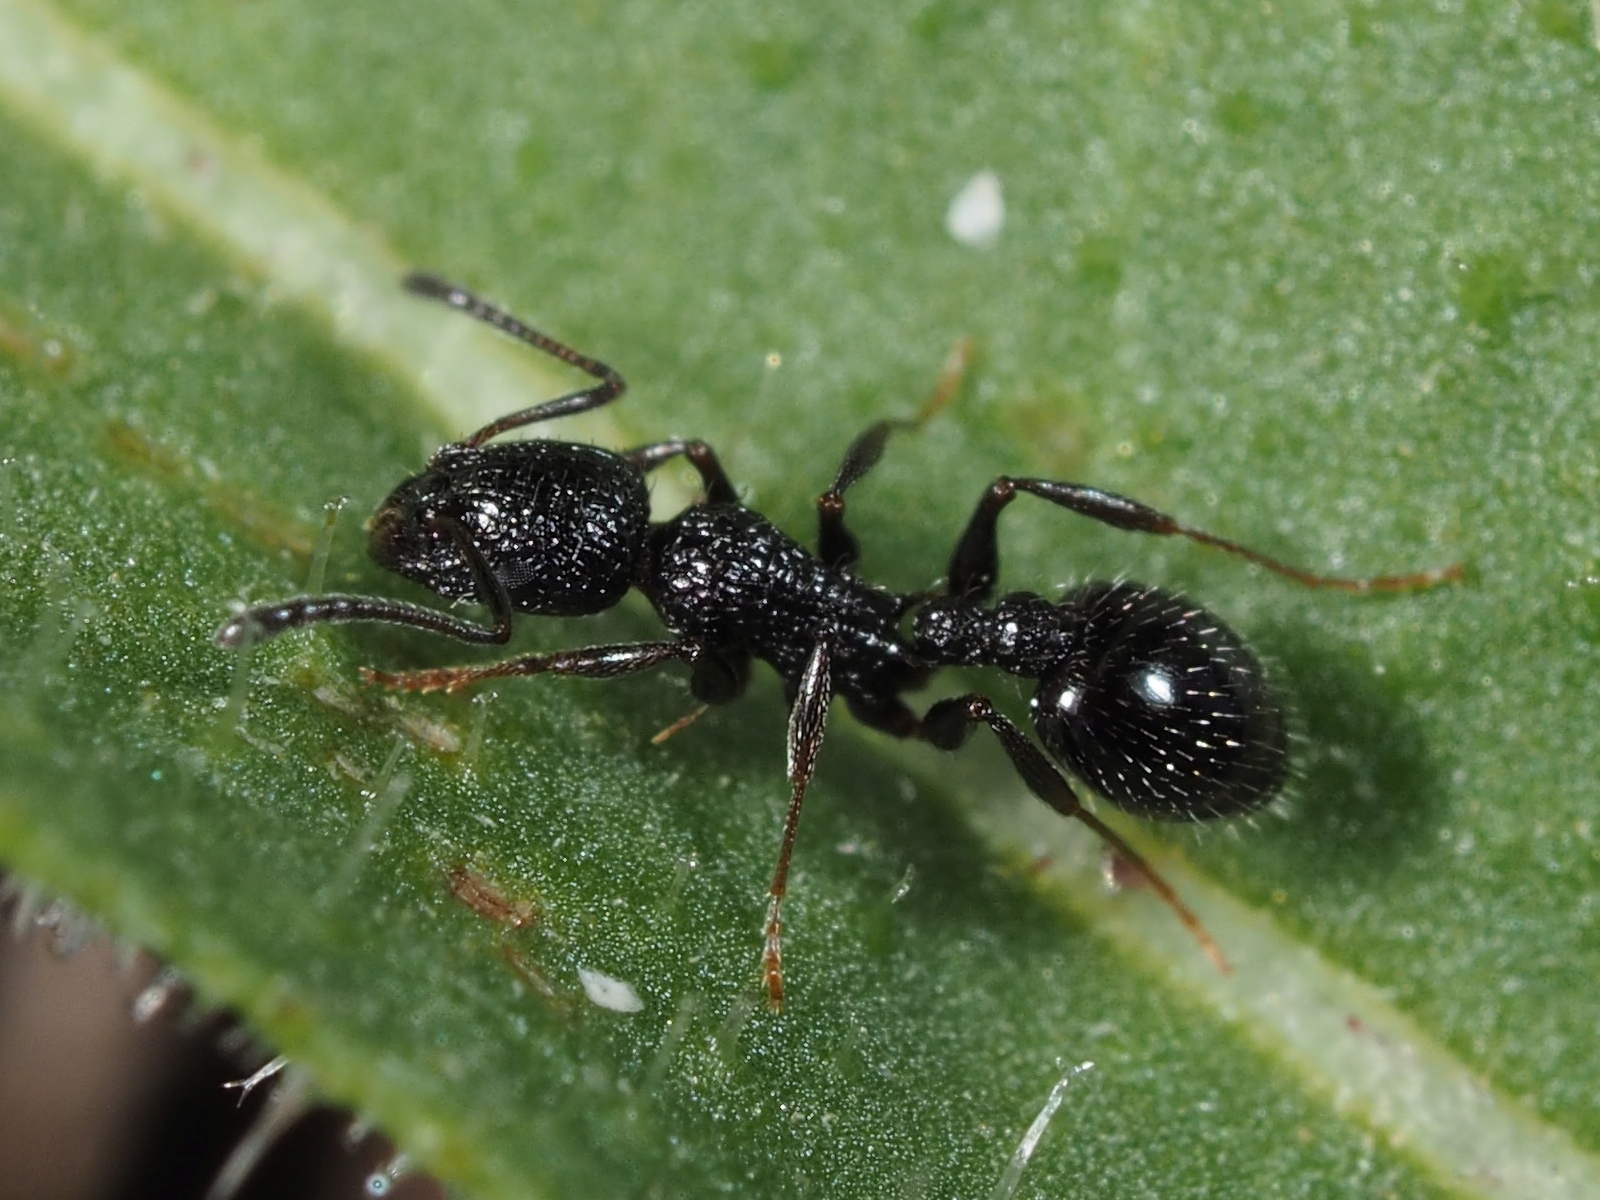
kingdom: Animalia
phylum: Arthropoda
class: Insecta
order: Hymenoptera
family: Formicidae
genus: Temnothorax
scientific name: Temnothorax
